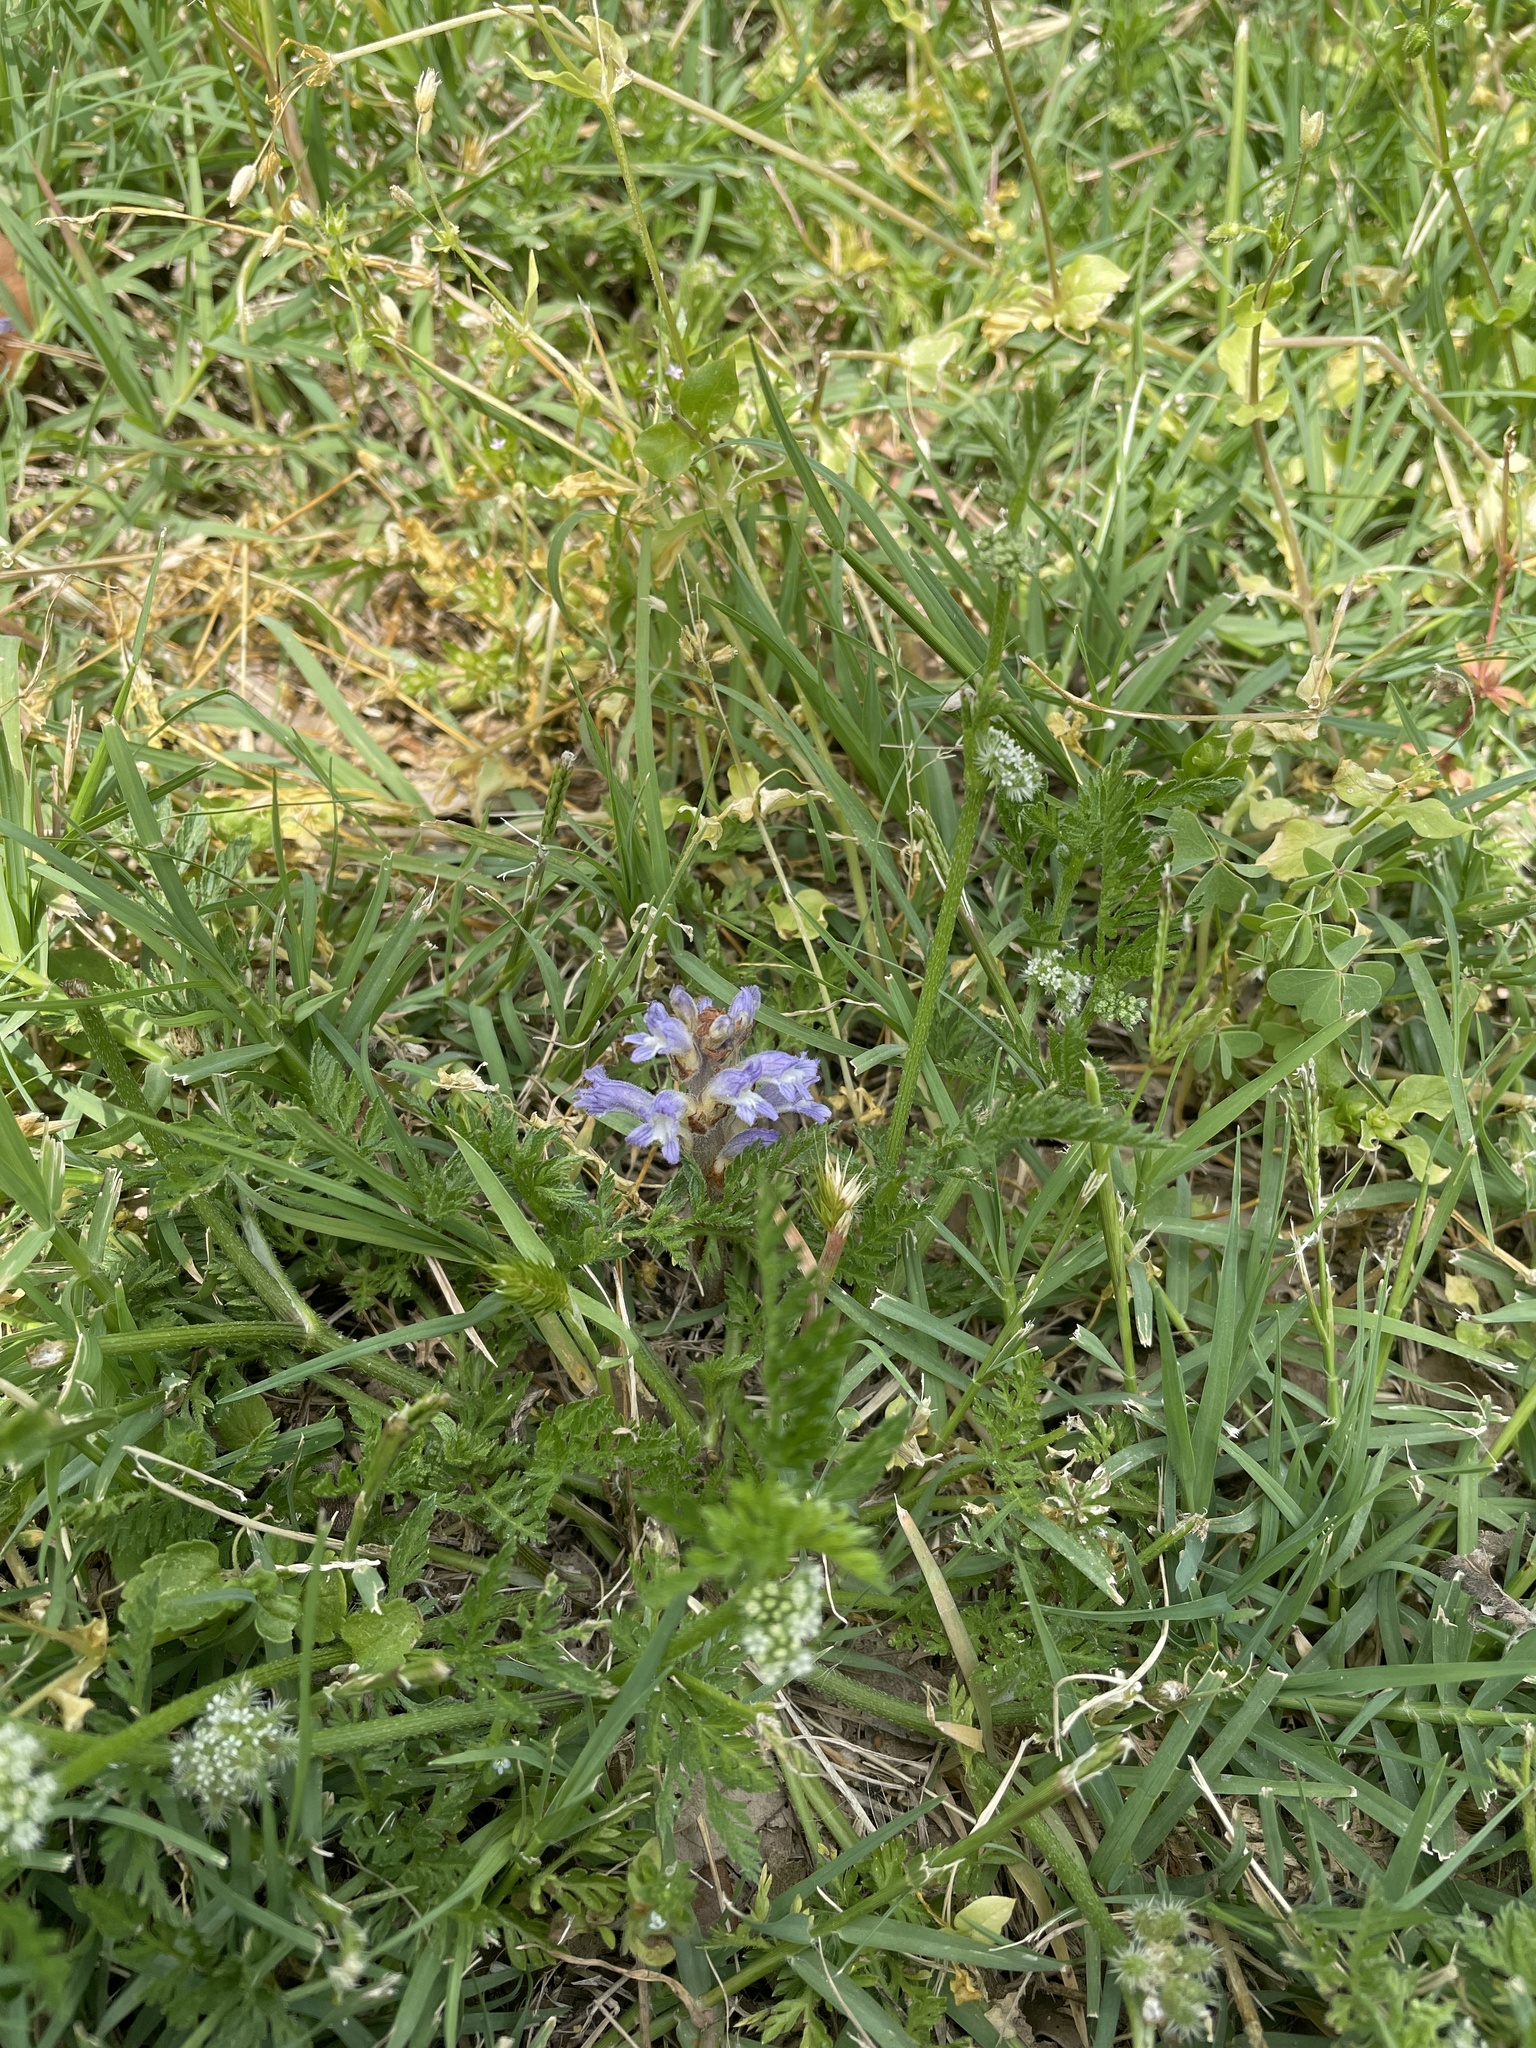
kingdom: Plantae
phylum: Tracheophyta
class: Magnoliopsida
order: Lamiales
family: Orobanchaceae
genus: Phelipanche
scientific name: Phelipanche mutelii
